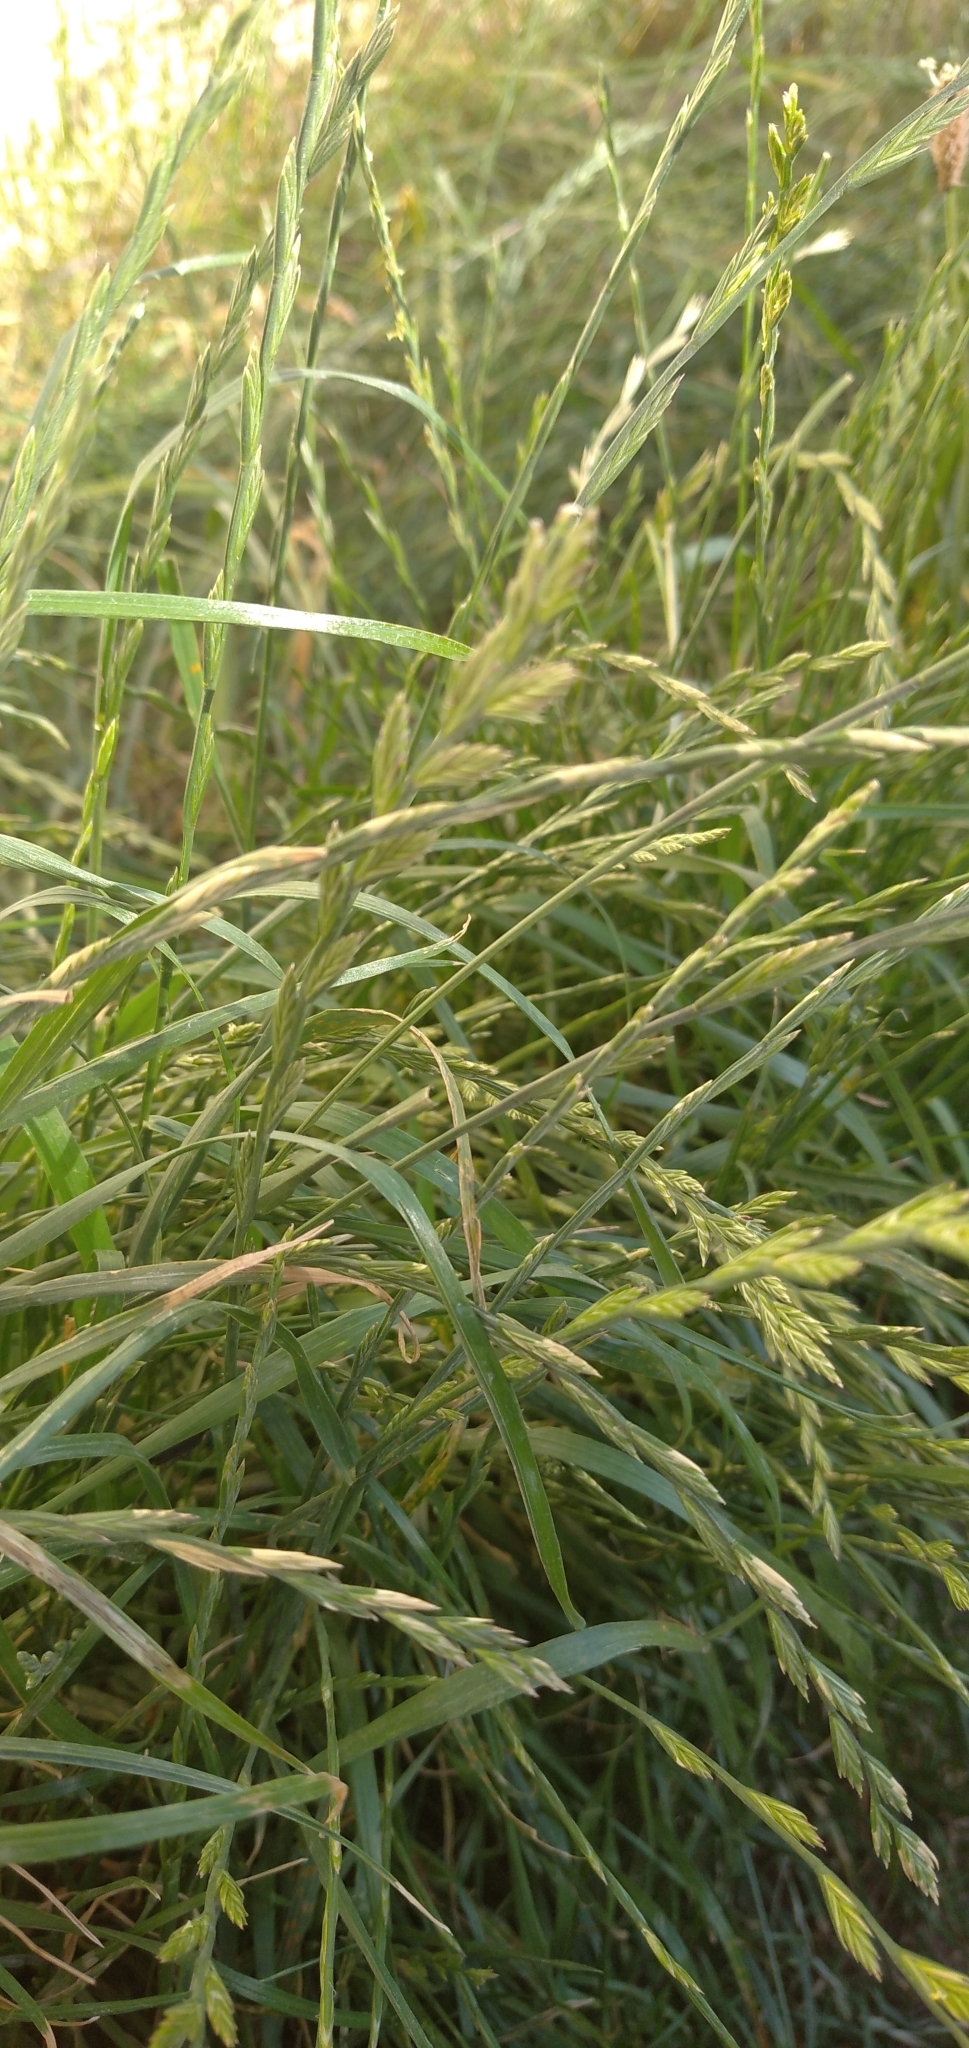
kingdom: Plantae
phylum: Tracheophyta
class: Liliopsida
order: Poales
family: Poaceae
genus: Lolium
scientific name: Lolium perenne
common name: Perennial ryegrass
